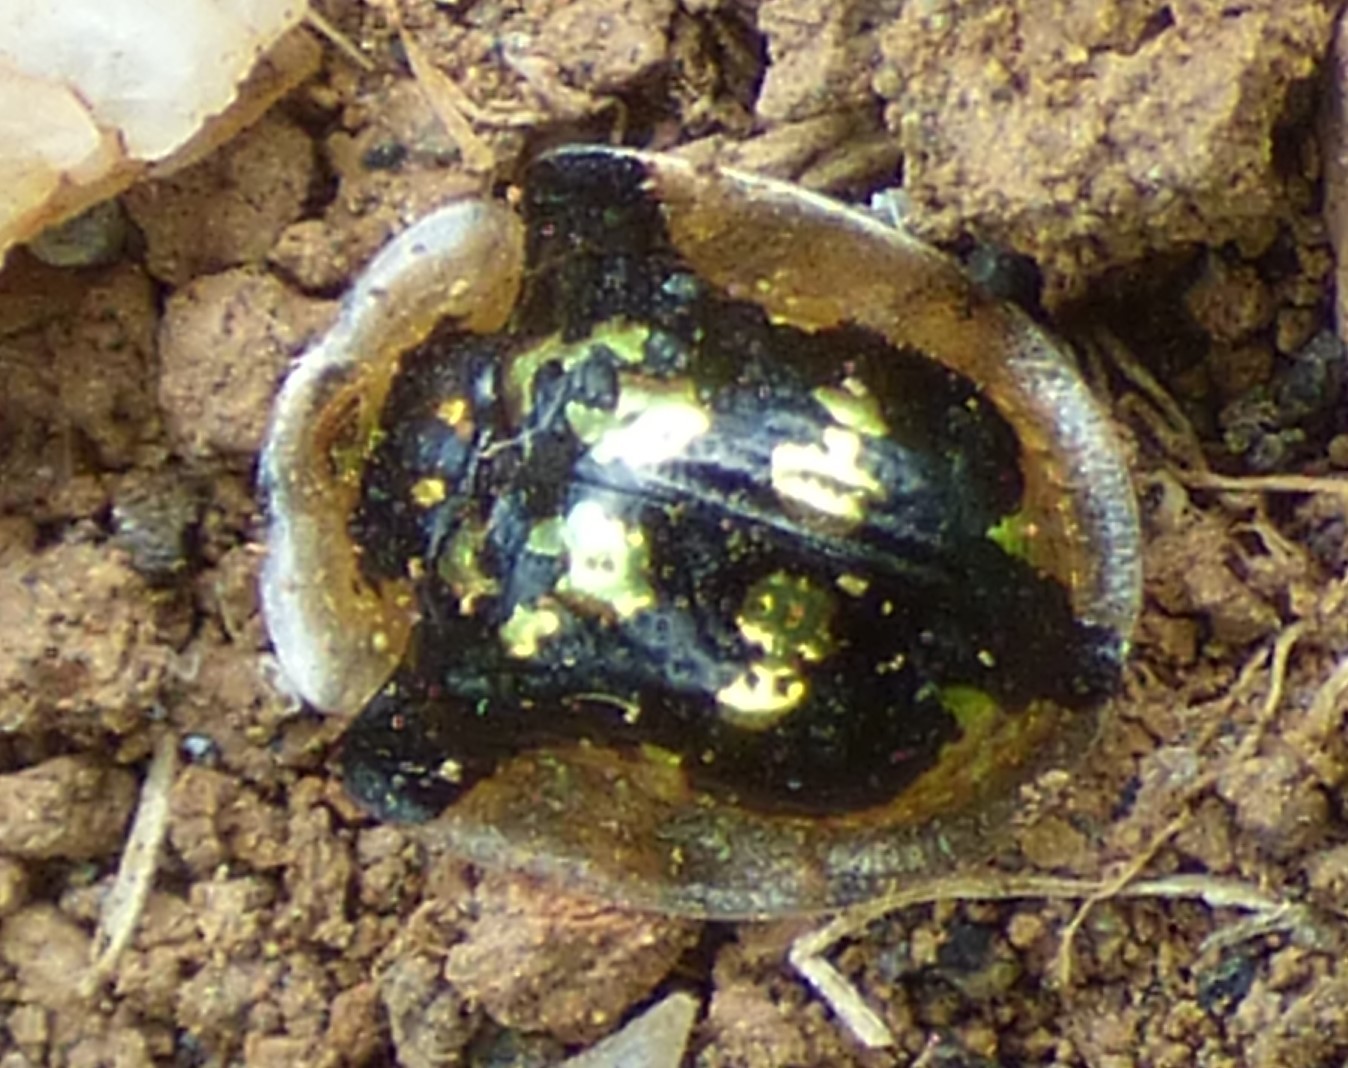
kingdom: Animalia
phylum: Arthropoda
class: Insecta
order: Coleoptera
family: Chrysomelidae
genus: Deloyala
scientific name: Deloyala guttata
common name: Mottled tortoise beetle
